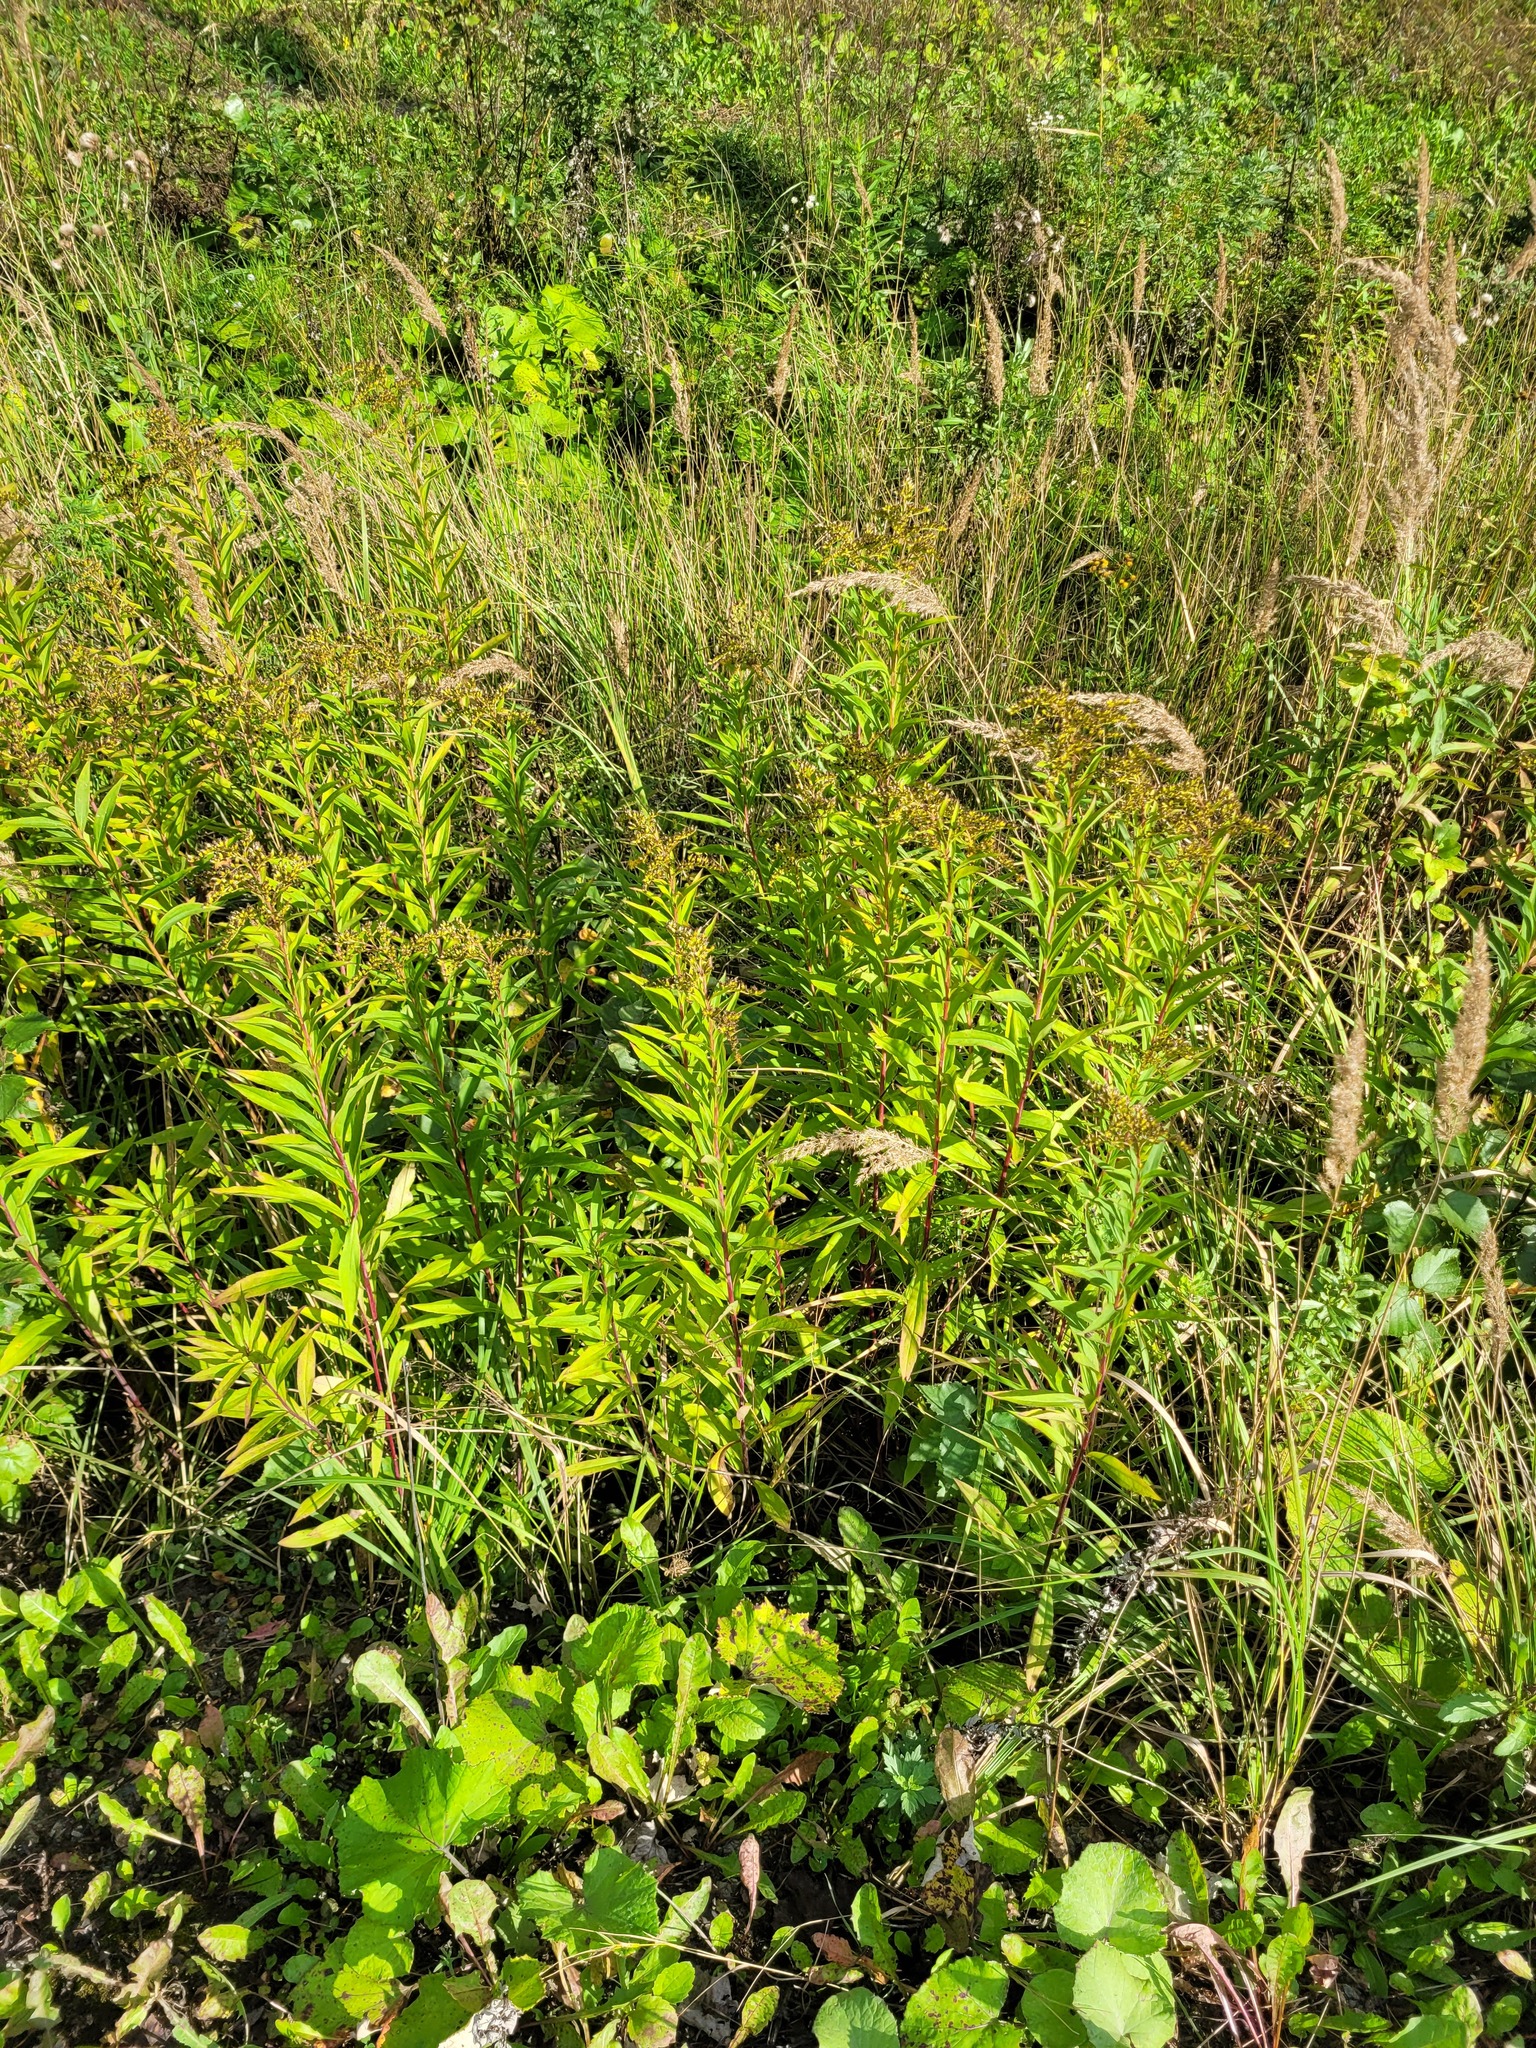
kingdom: Plantae
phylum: Tracheophyta
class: Magnoliopsida
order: Asterales
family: Asteraceae
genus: Solidago
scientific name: Solidago gigantea
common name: Giant goldenrod
